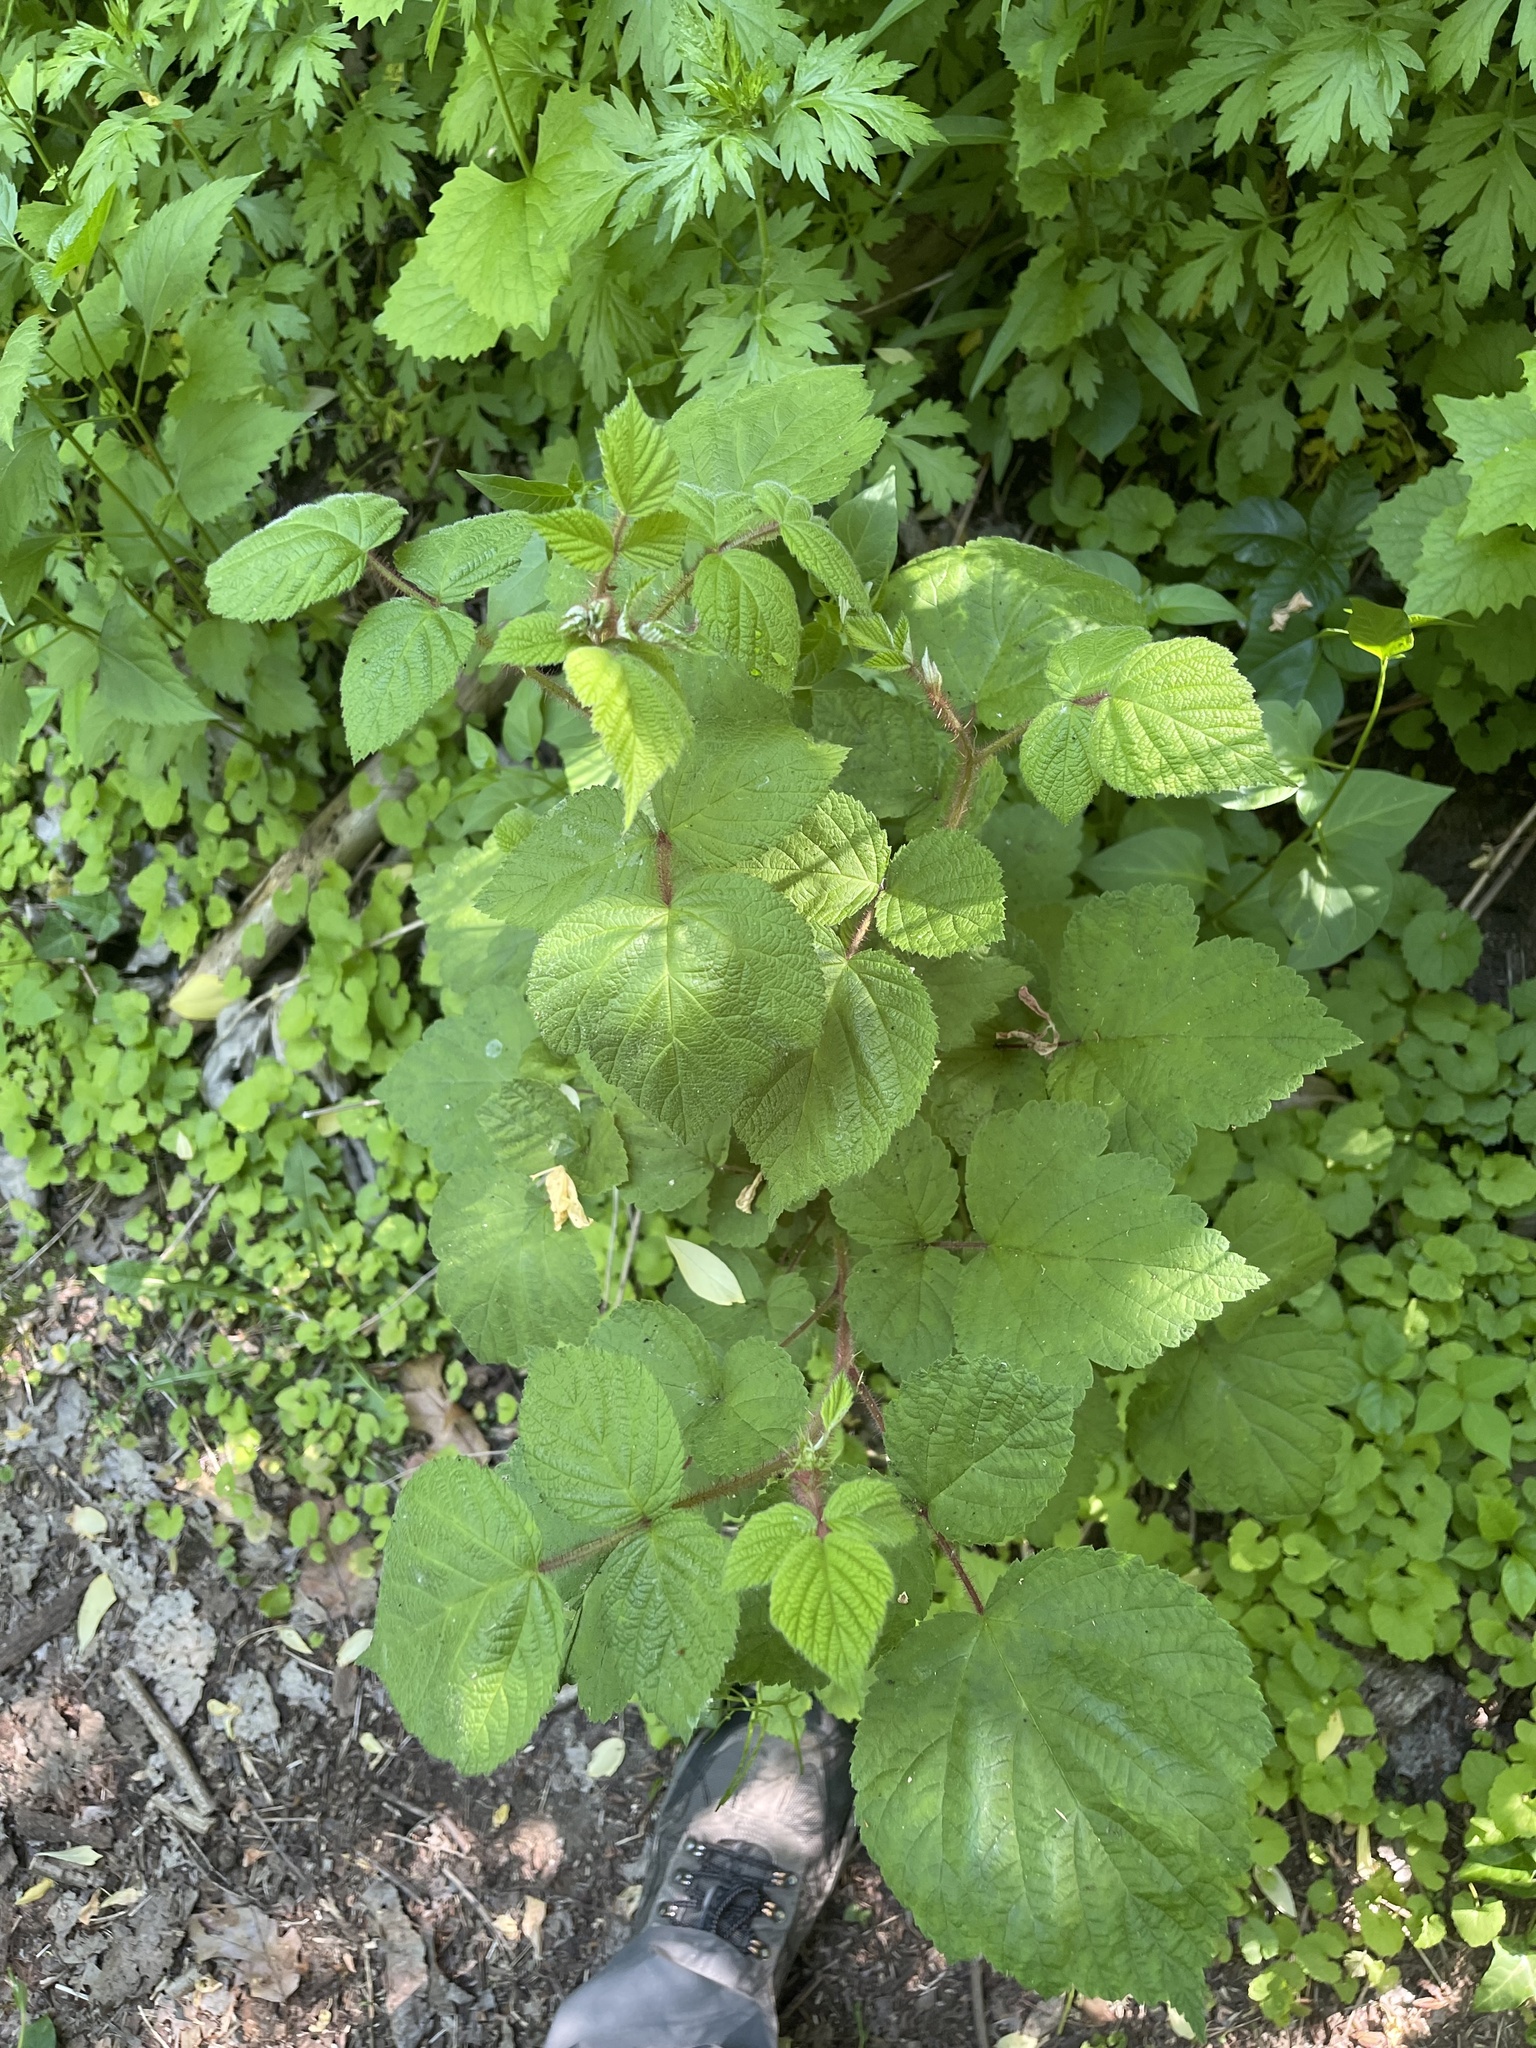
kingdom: Plantae
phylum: Tracheophyta
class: Magnoliopsida
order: Rosales
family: Rosaceae
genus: Rubus
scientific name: Rubus phoenicolasius
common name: Japanese wineberry
